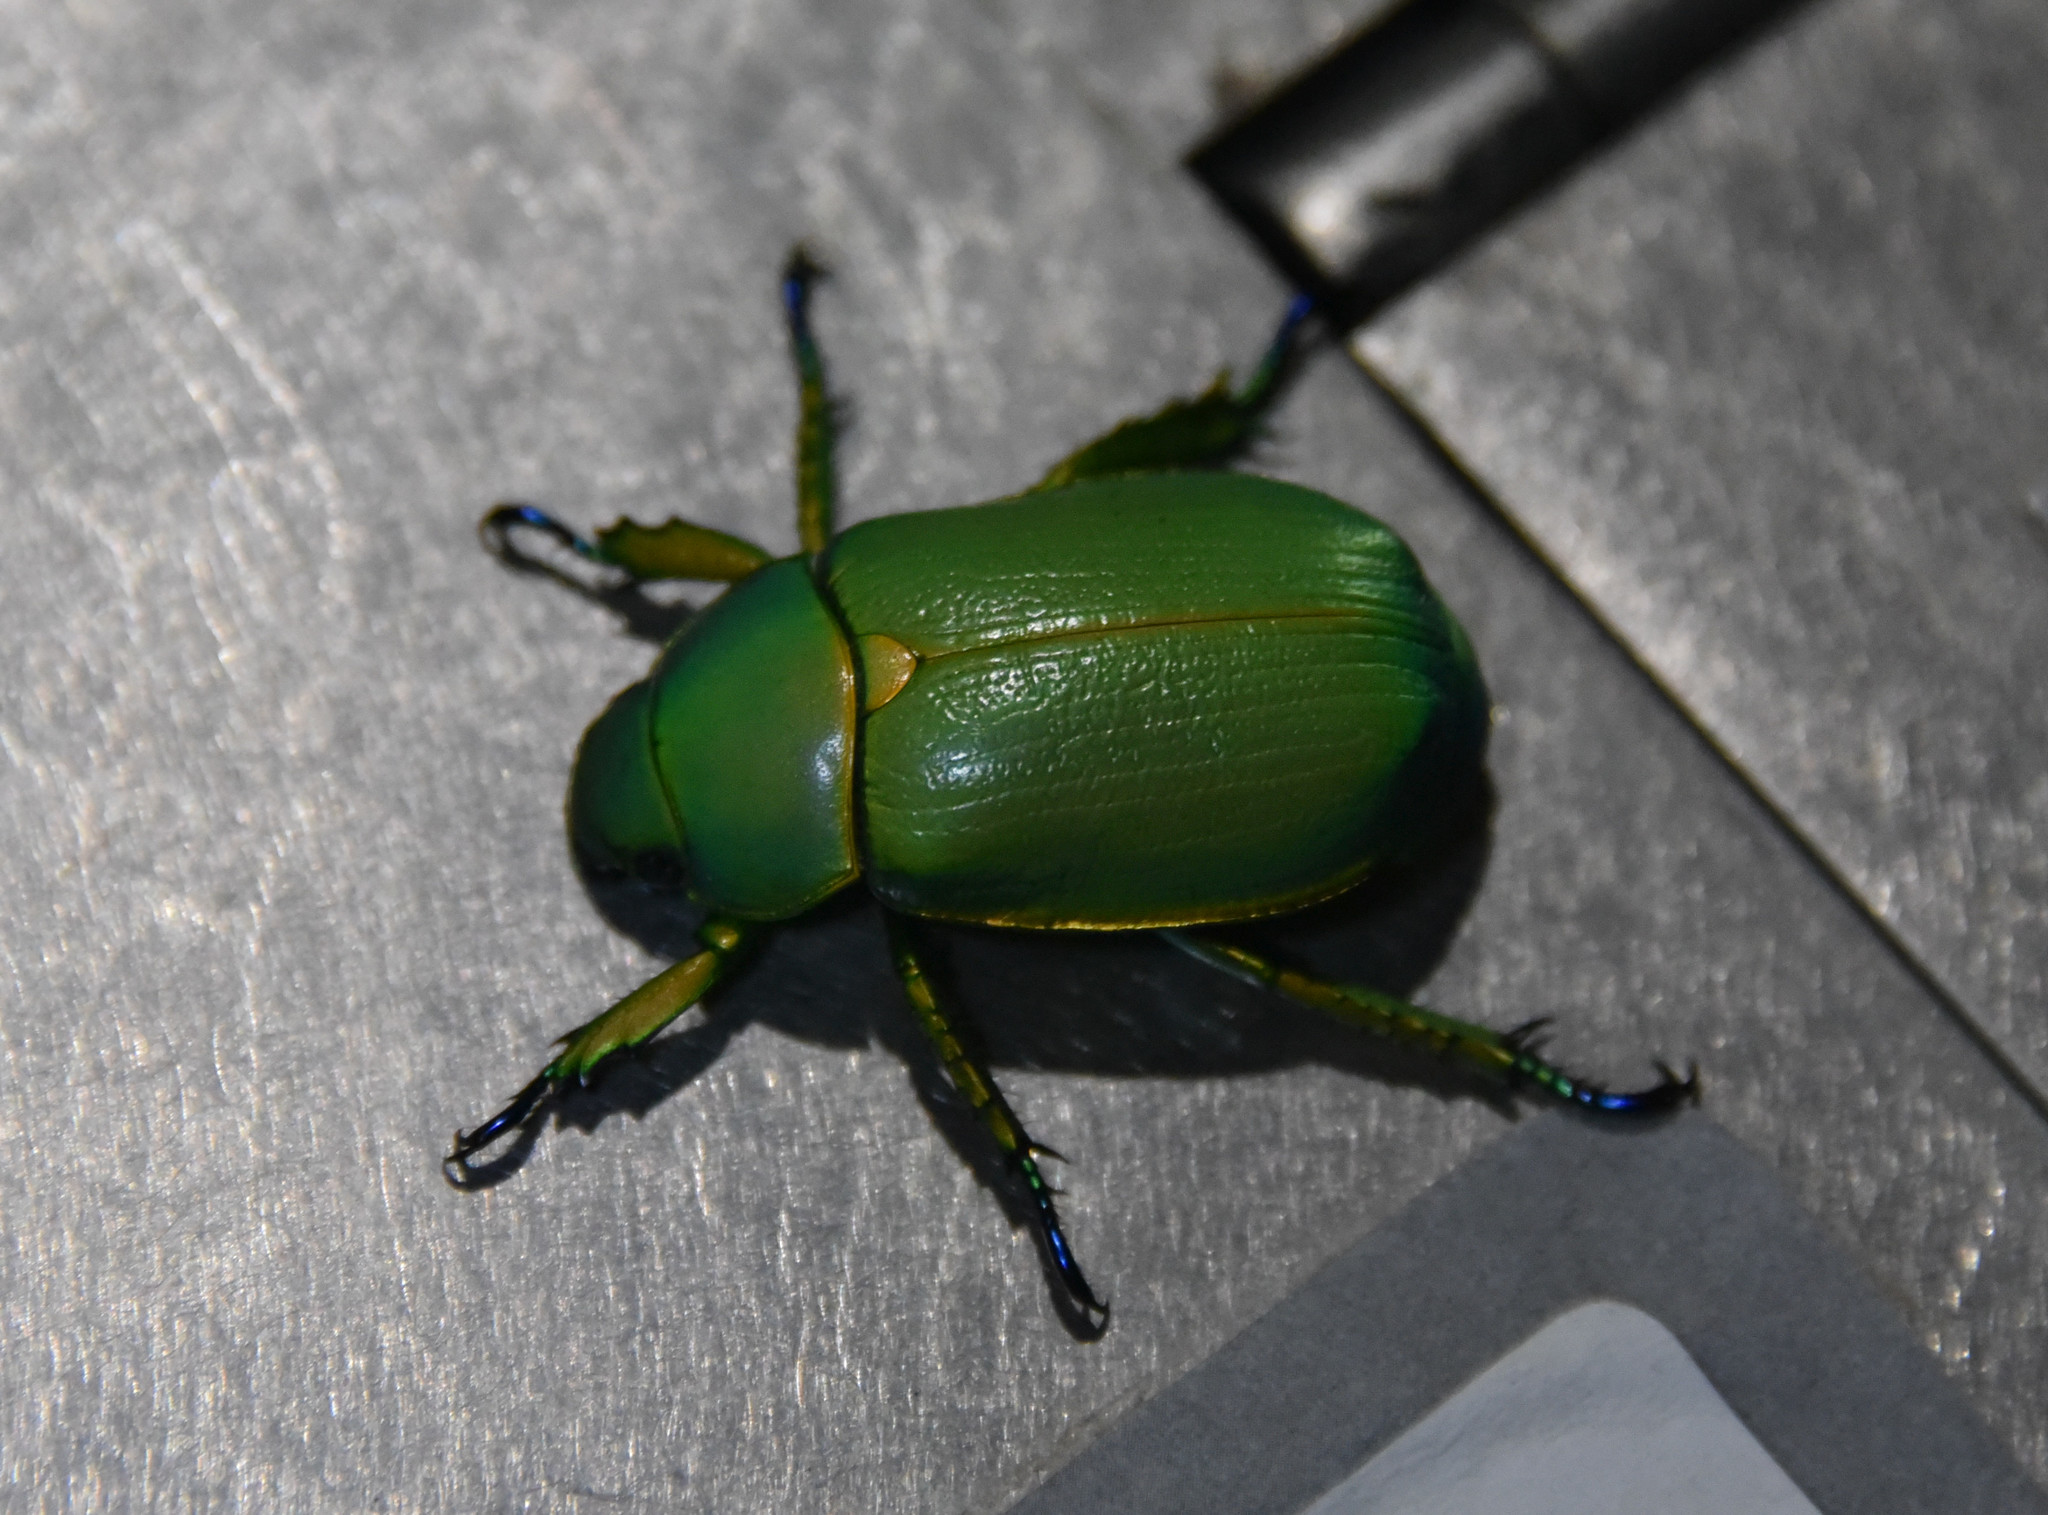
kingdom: Animalia
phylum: Arthropoda
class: Insecta
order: Coleoptera
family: Scarabaeidae
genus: Chrysina
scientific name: Chrysina woodi
